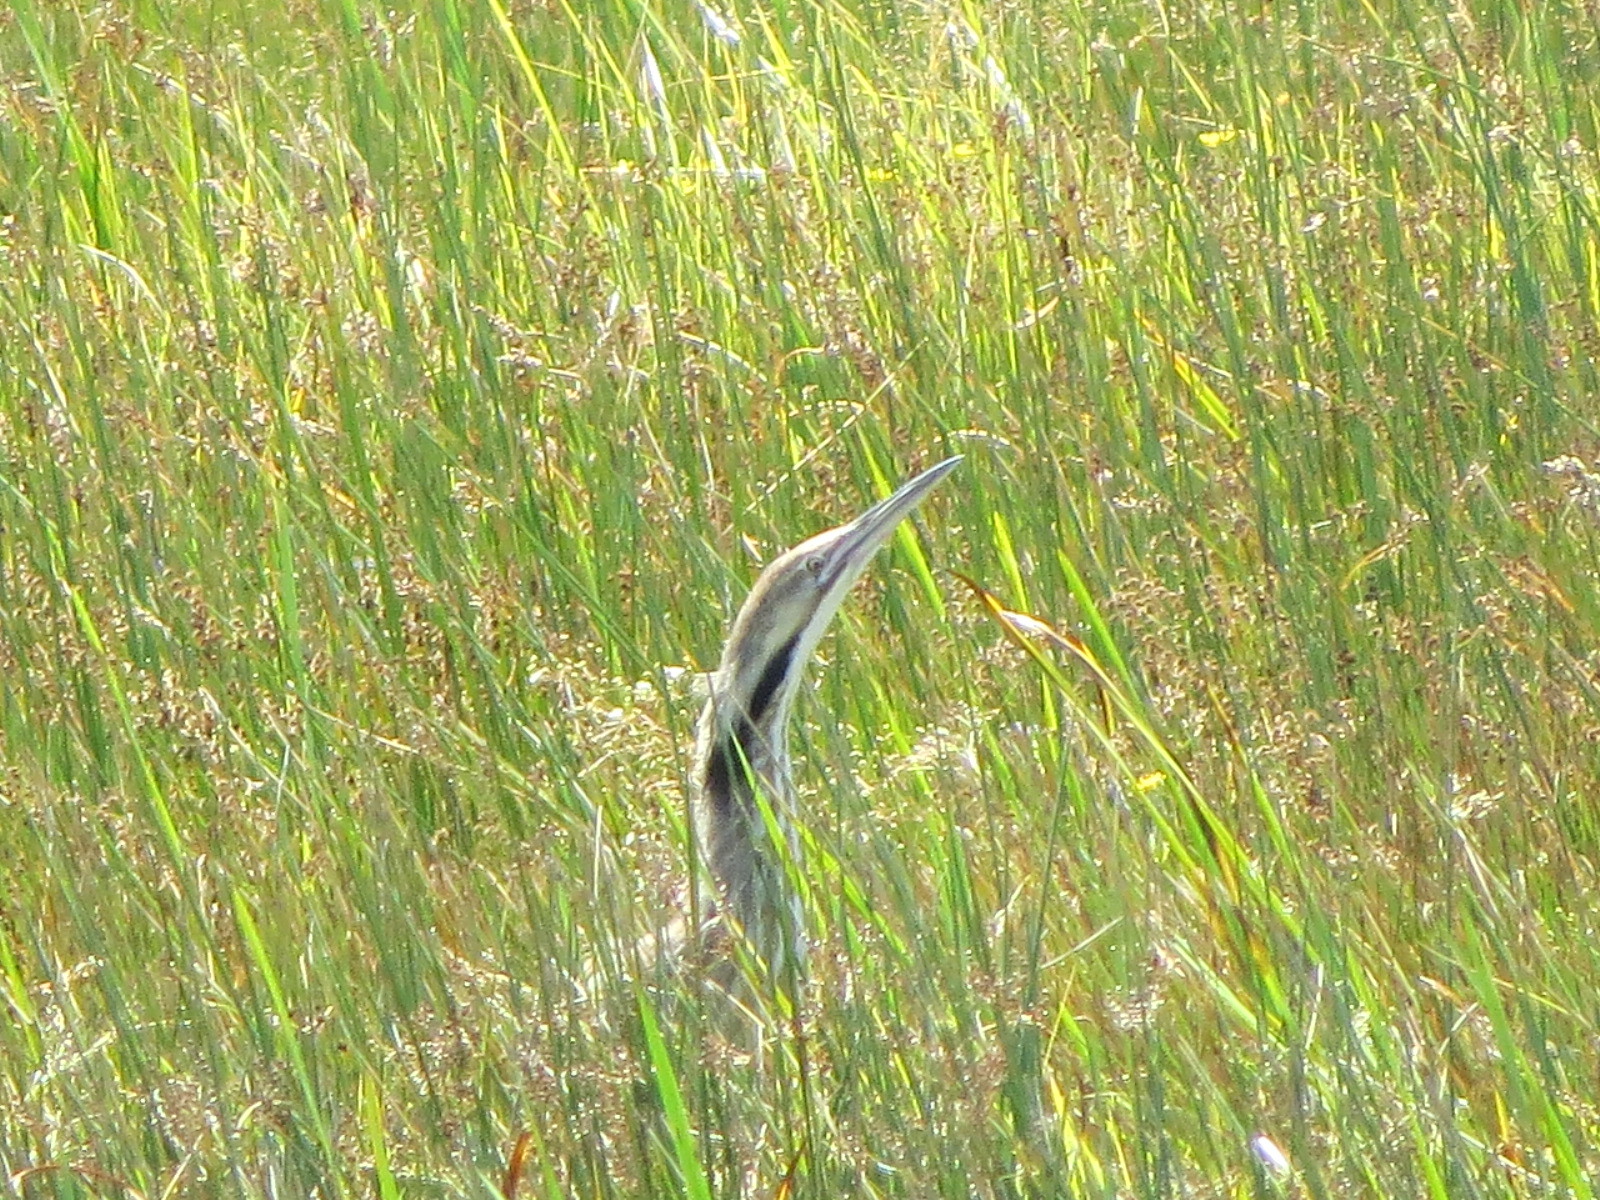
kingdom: Animalia
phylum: Chordata
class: Aves
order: Pelecaniformes
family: Ardeidae
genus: Botaurus
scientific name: Botaurus lentiginosus
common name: American bittern
